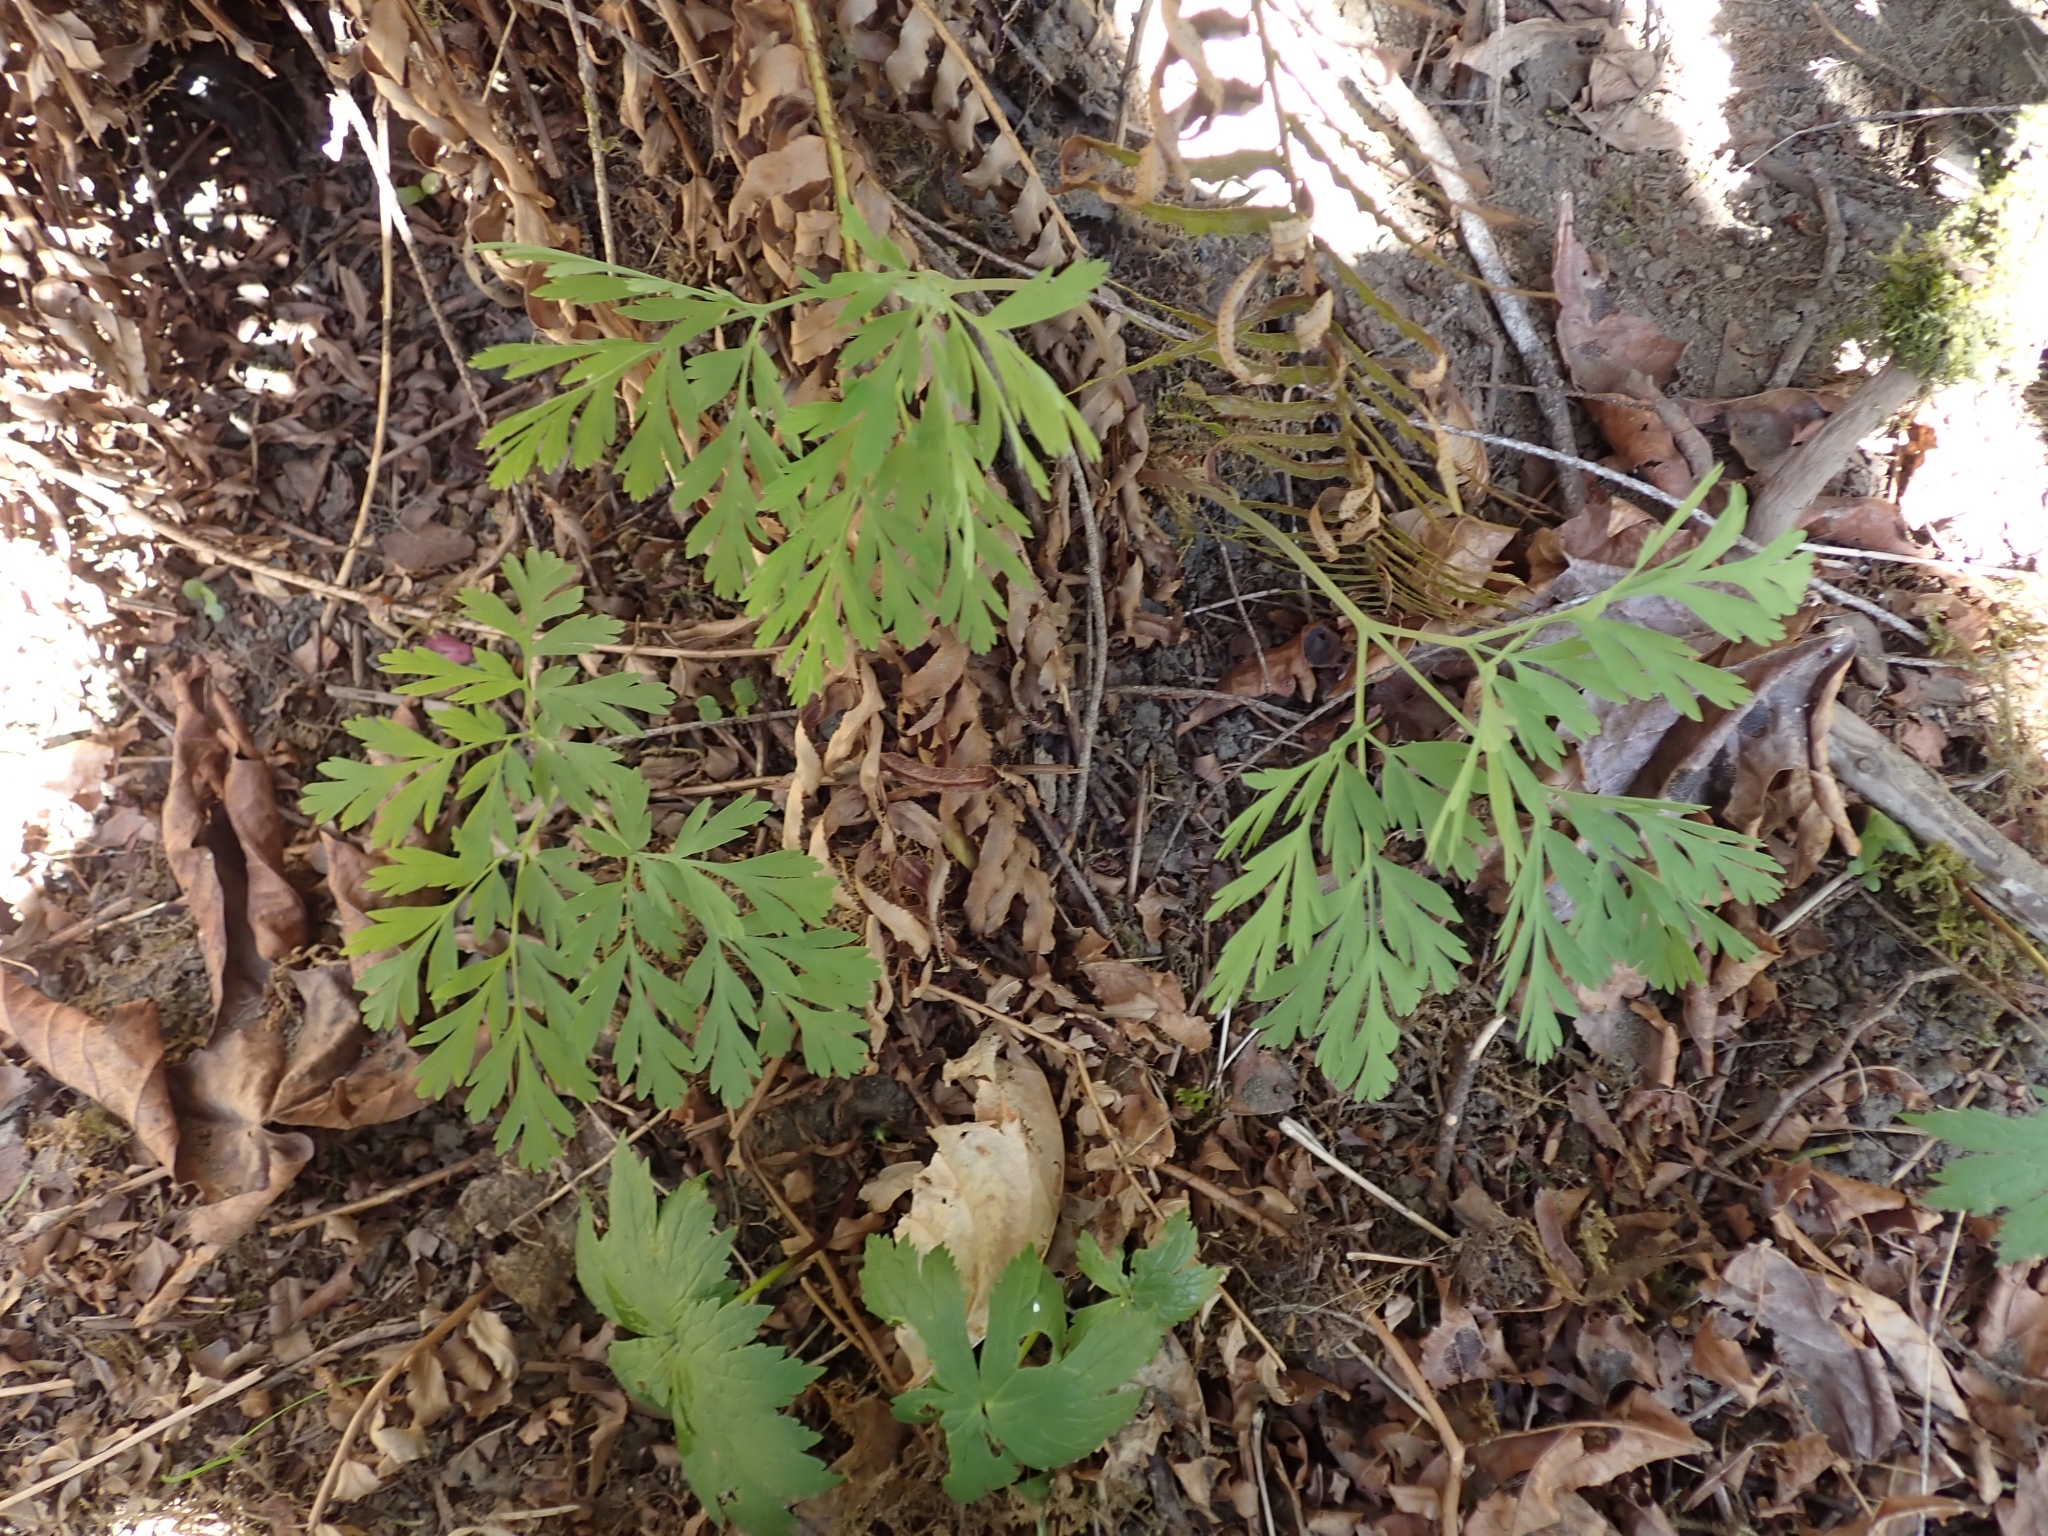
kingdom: Plantae
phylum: Tracheophyta
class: Magnoliopsida
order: Ranunculales
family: Papaveraceae
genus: Dicentra
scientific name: Dicentra formosa
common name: Bleeding-heart
